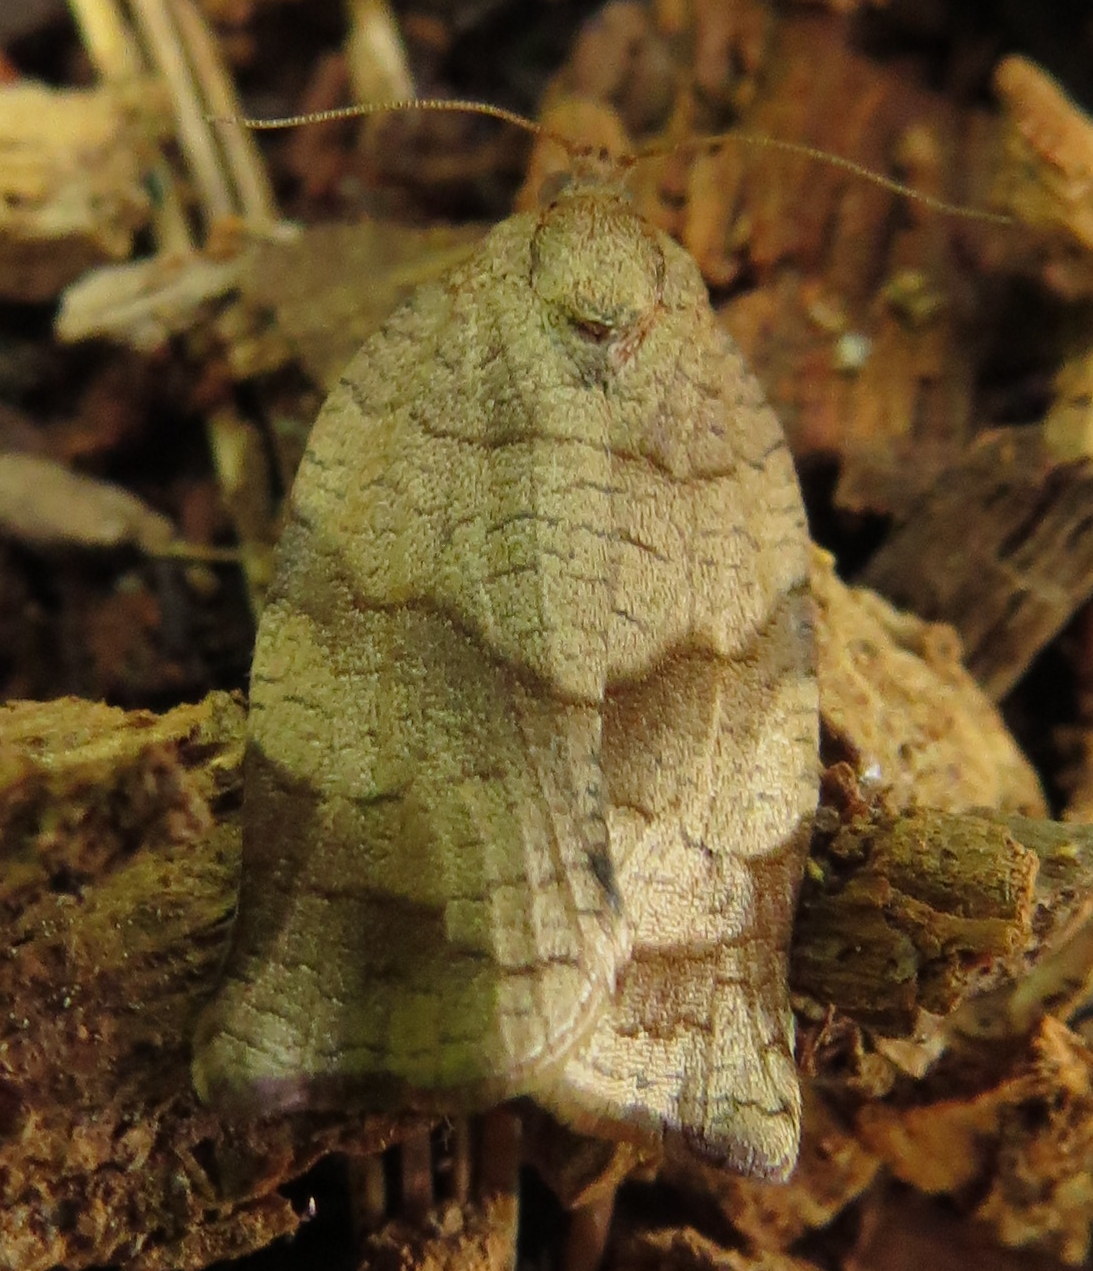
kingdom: Animalia
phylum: Arthropoda
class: Insecta
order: Lepidoptera
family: Tortricidae
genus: Choristoneura
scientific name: Choristoneura rosaceana
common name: Oblique-banded leafroller moth
